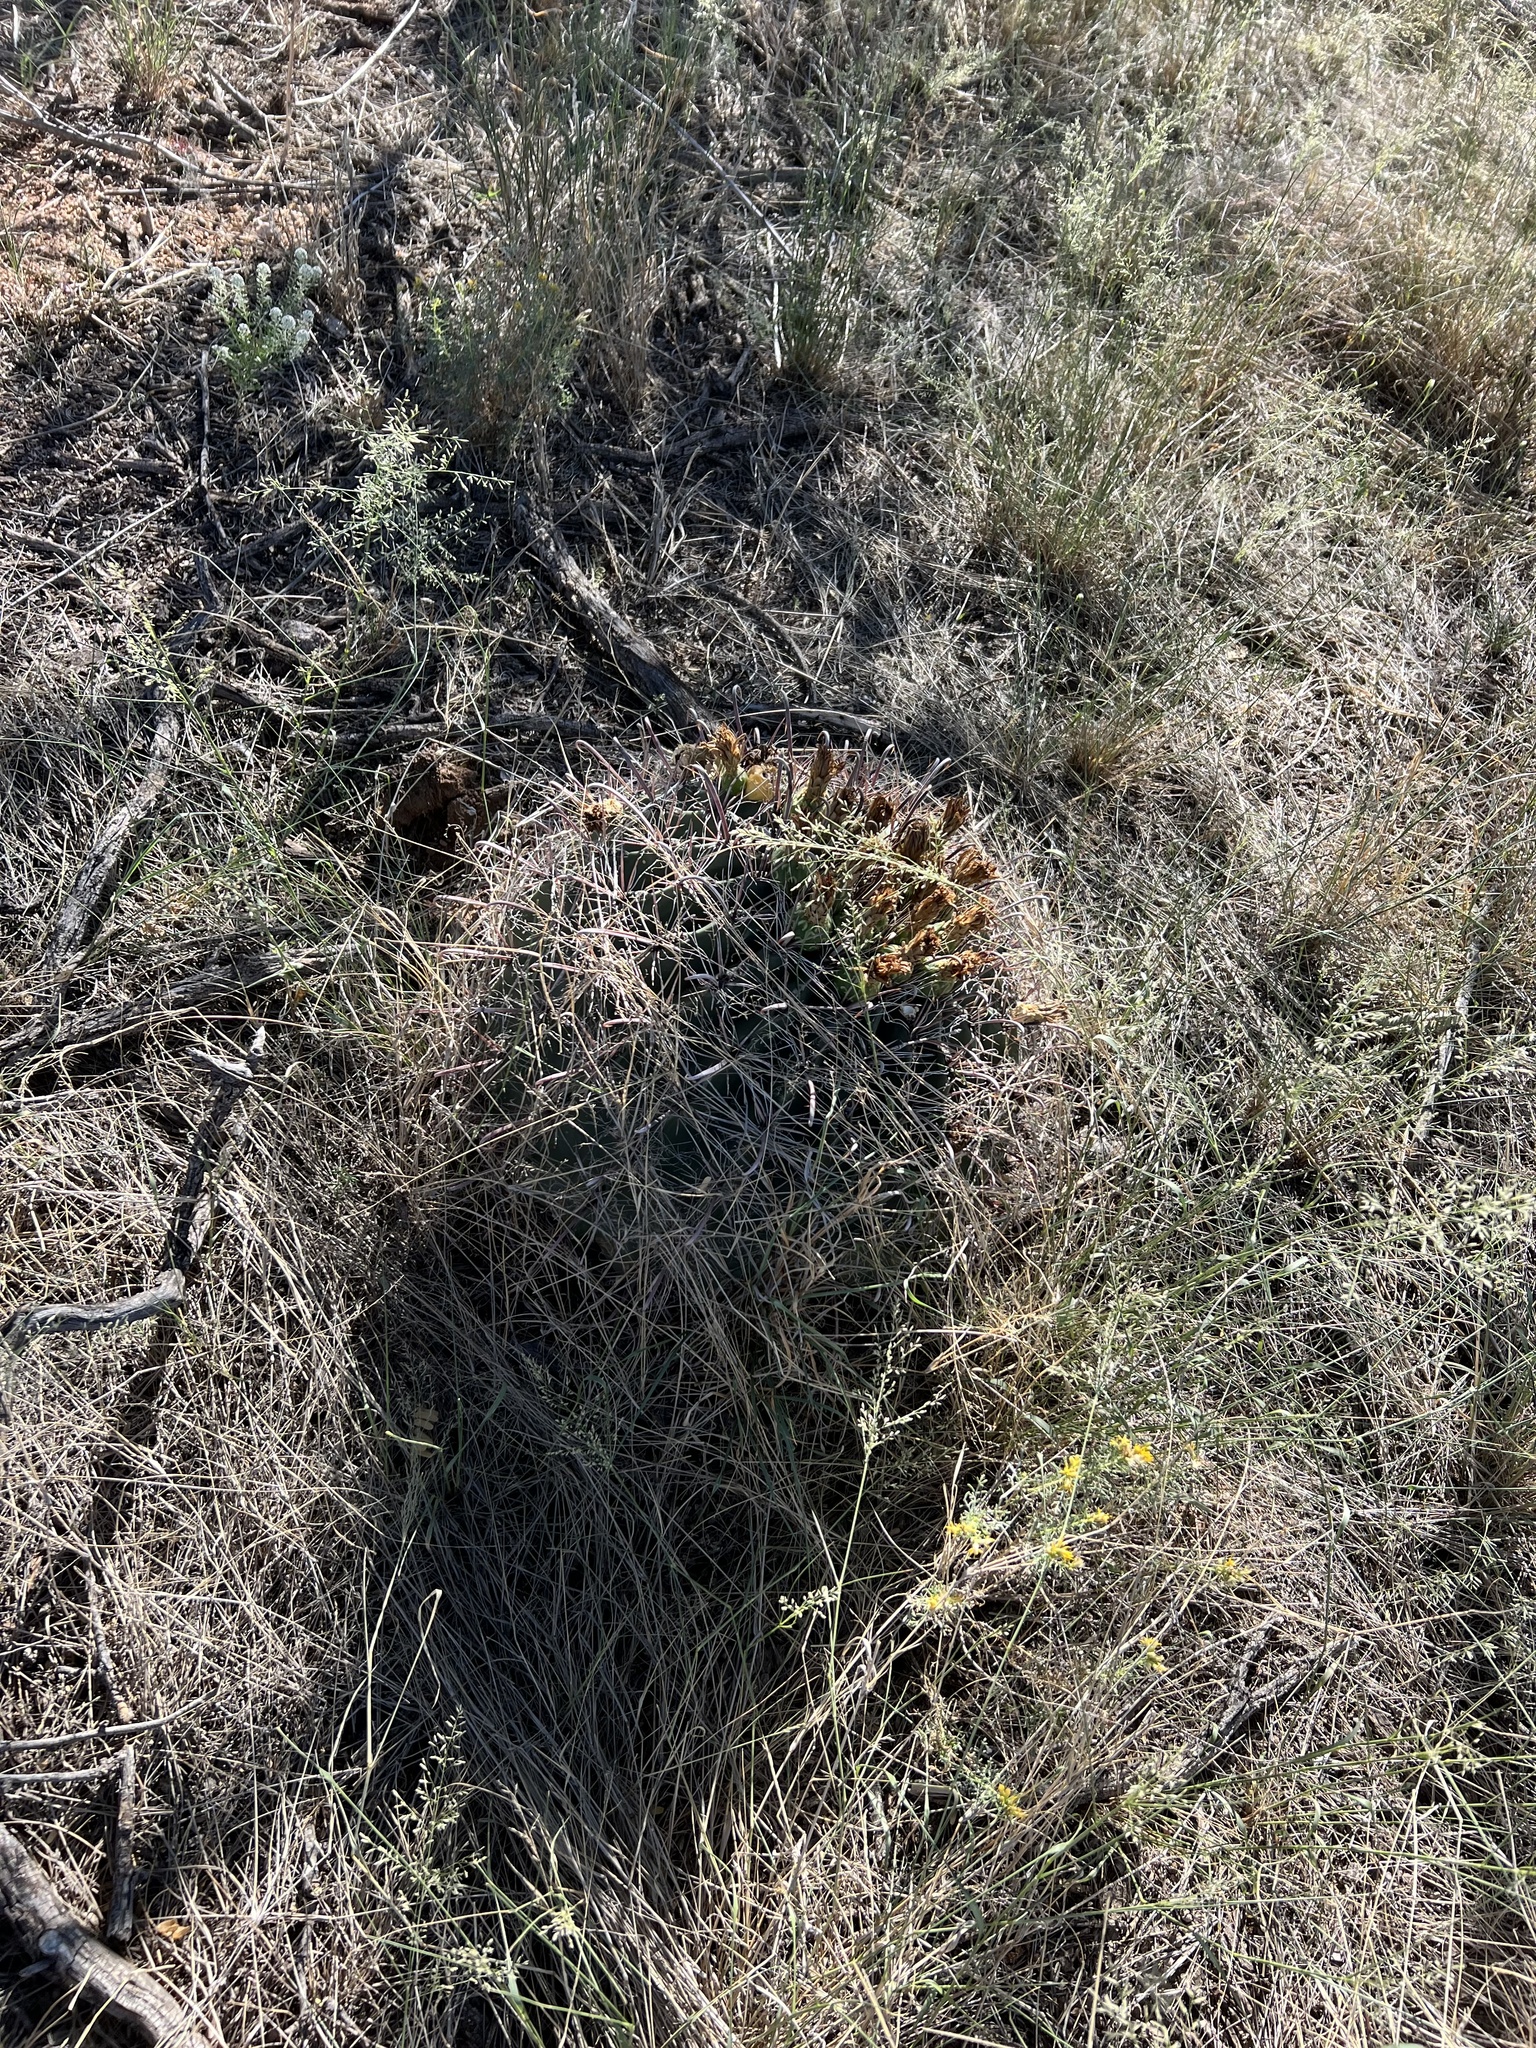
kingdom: Plantae
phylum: Tracheophyta
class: Magnoliopsida
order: Caryophyllales
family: Cactaceae
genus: Ferocactus
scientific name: Ferocactus wislizeni
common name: Candy barrel cactus
